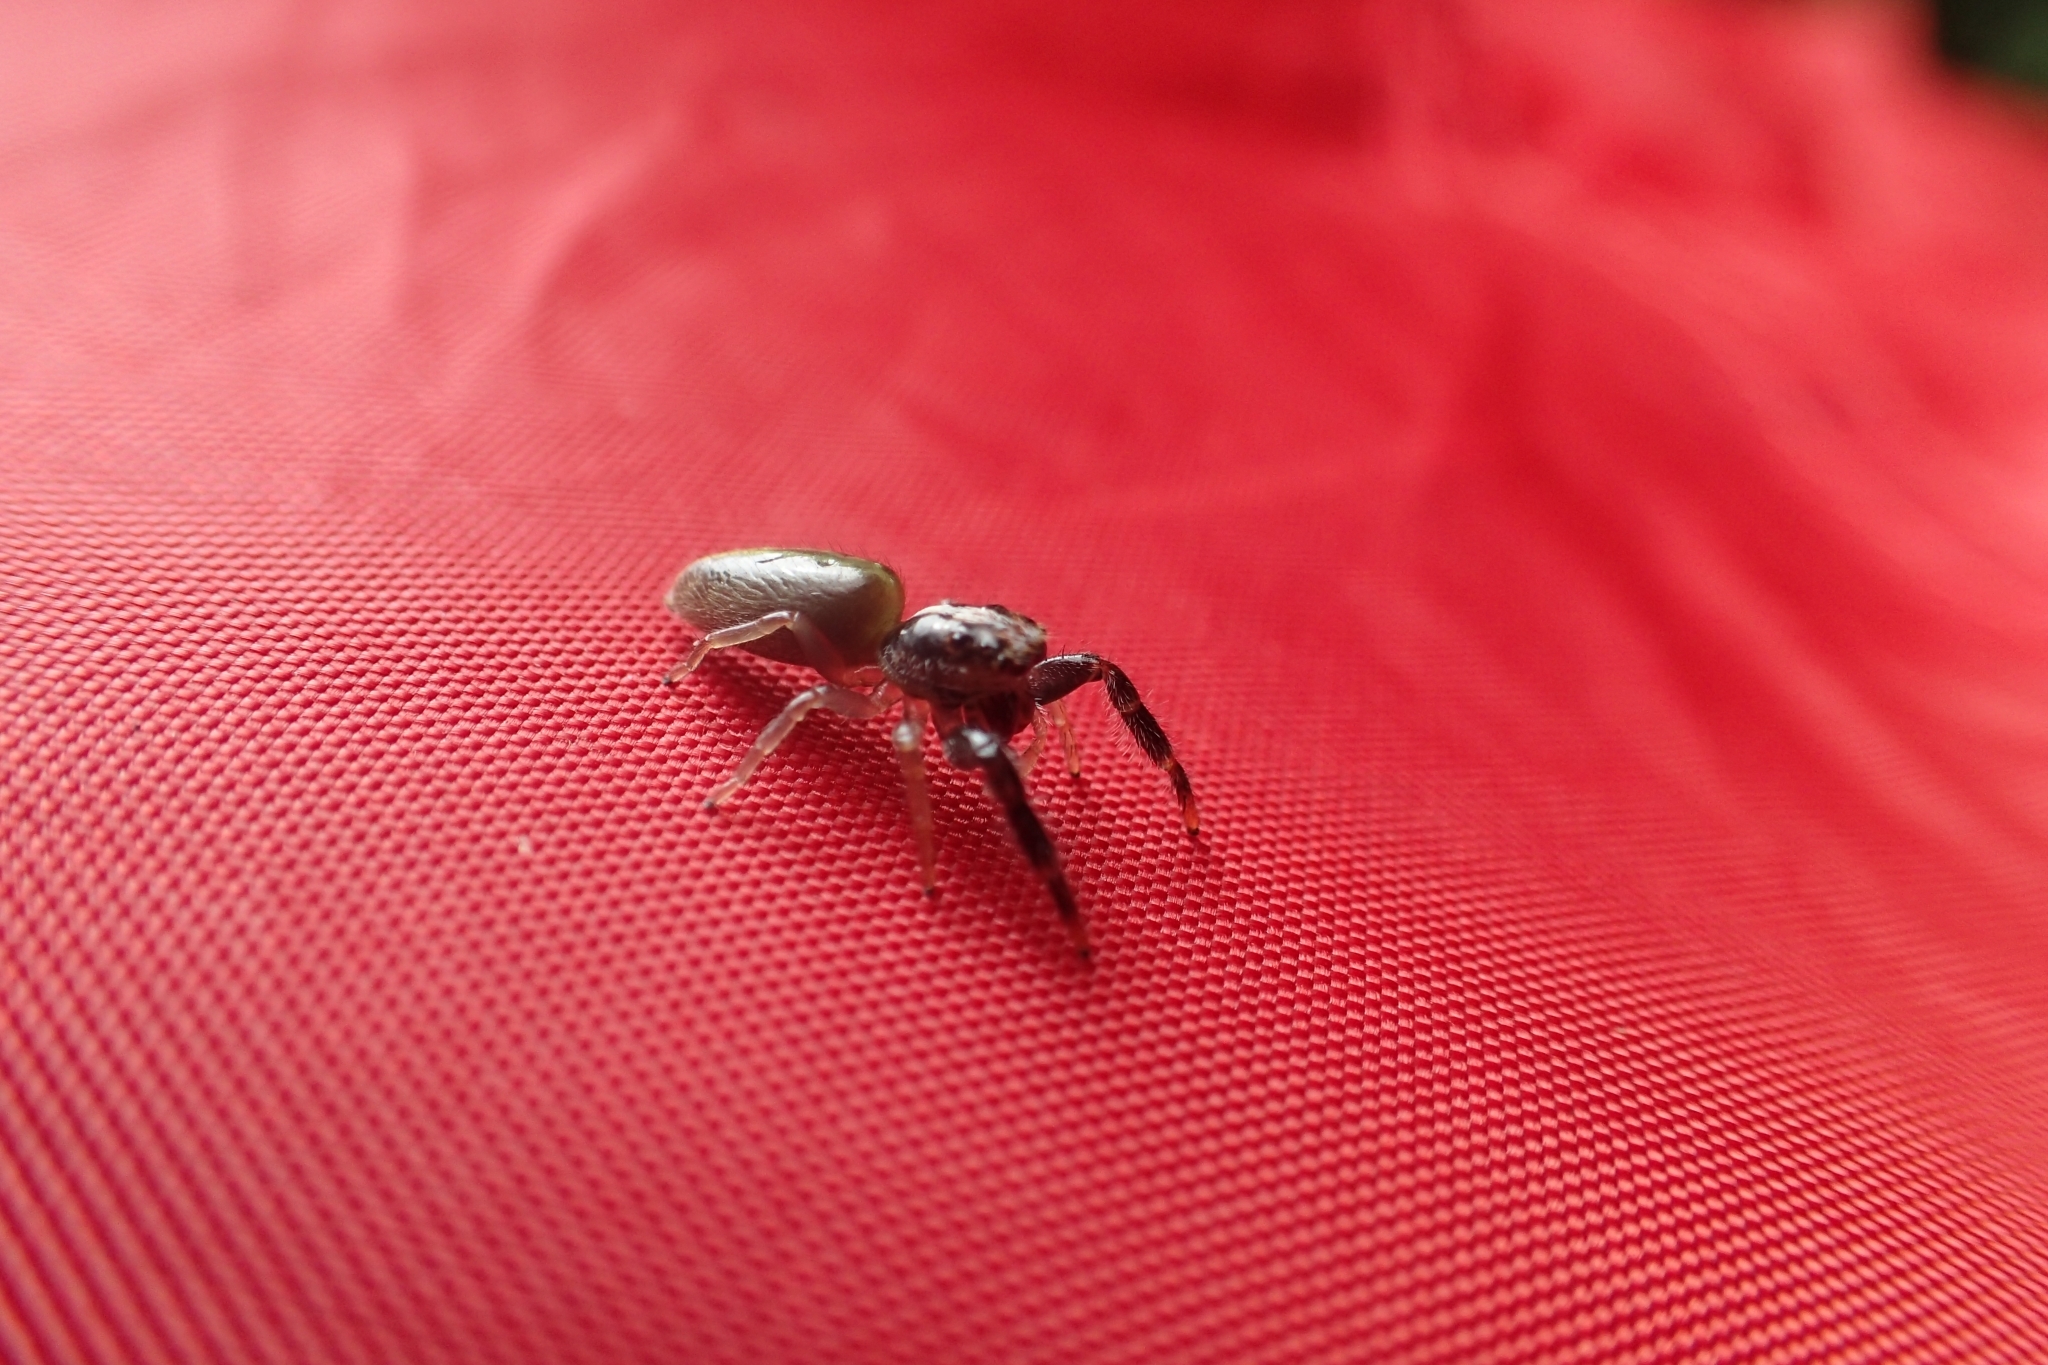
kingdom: Animalia
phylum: Arthropoda
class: Arachnida
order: Araneae
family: Salticidae
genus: Trite
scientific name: Trite planiceps
